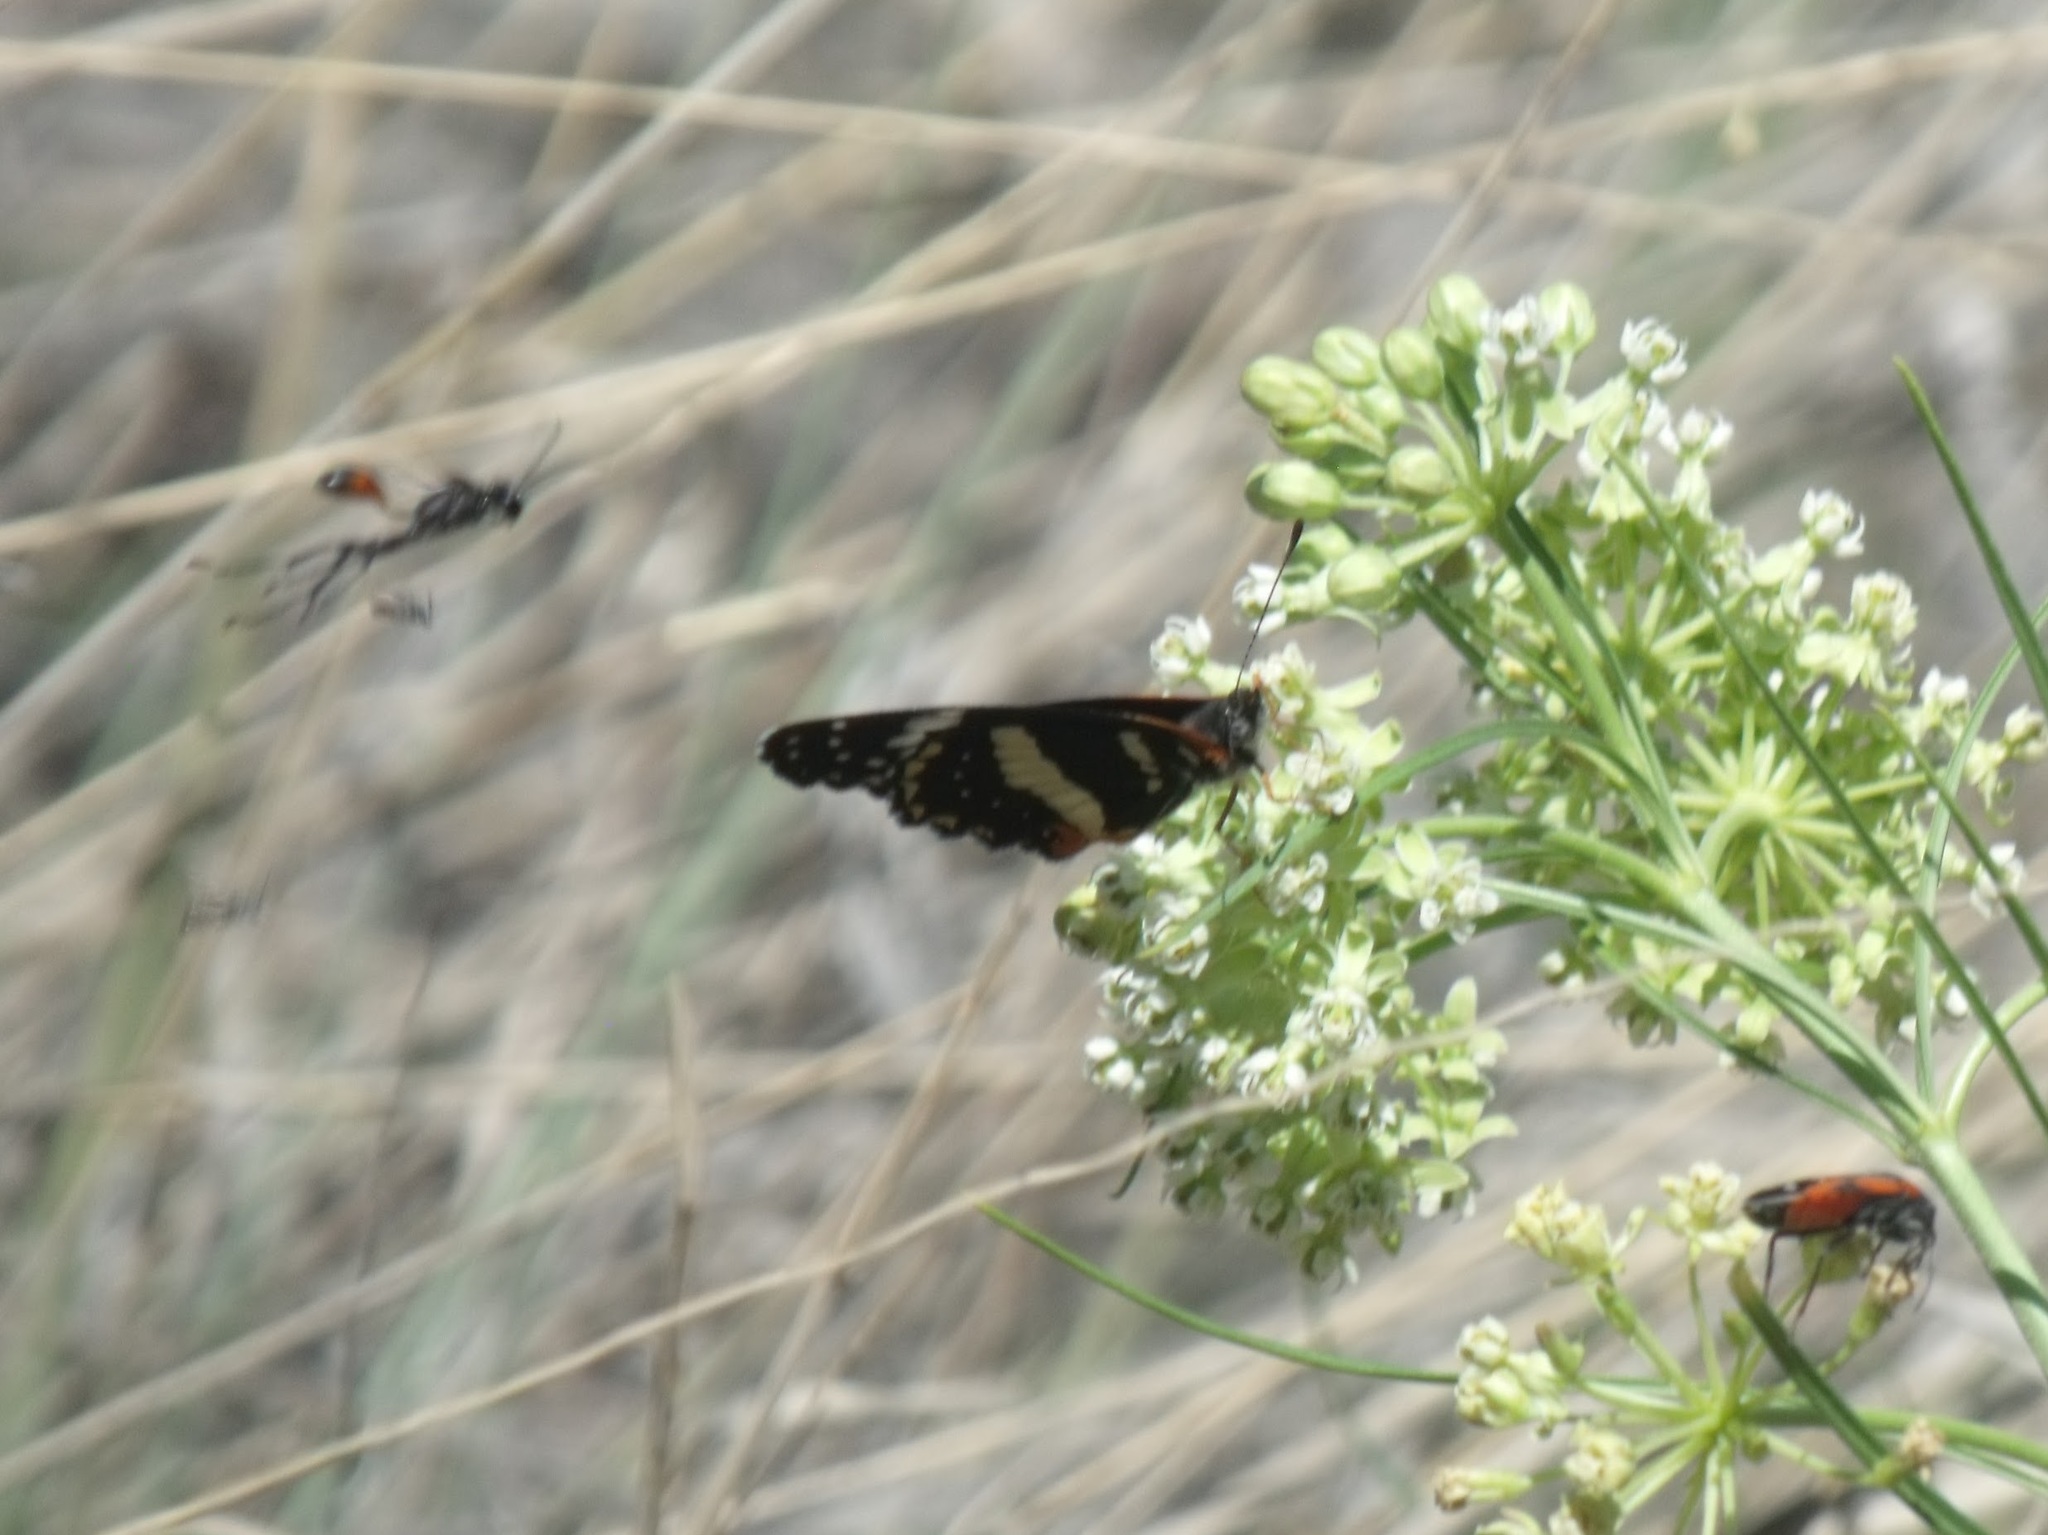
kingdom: Animalia
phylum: Arthropoda
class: Insecta
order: Lepidoptera
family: Nymphalidae
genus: Chlosyne
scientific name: Chlosyne lacinia
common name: Bordered patch
